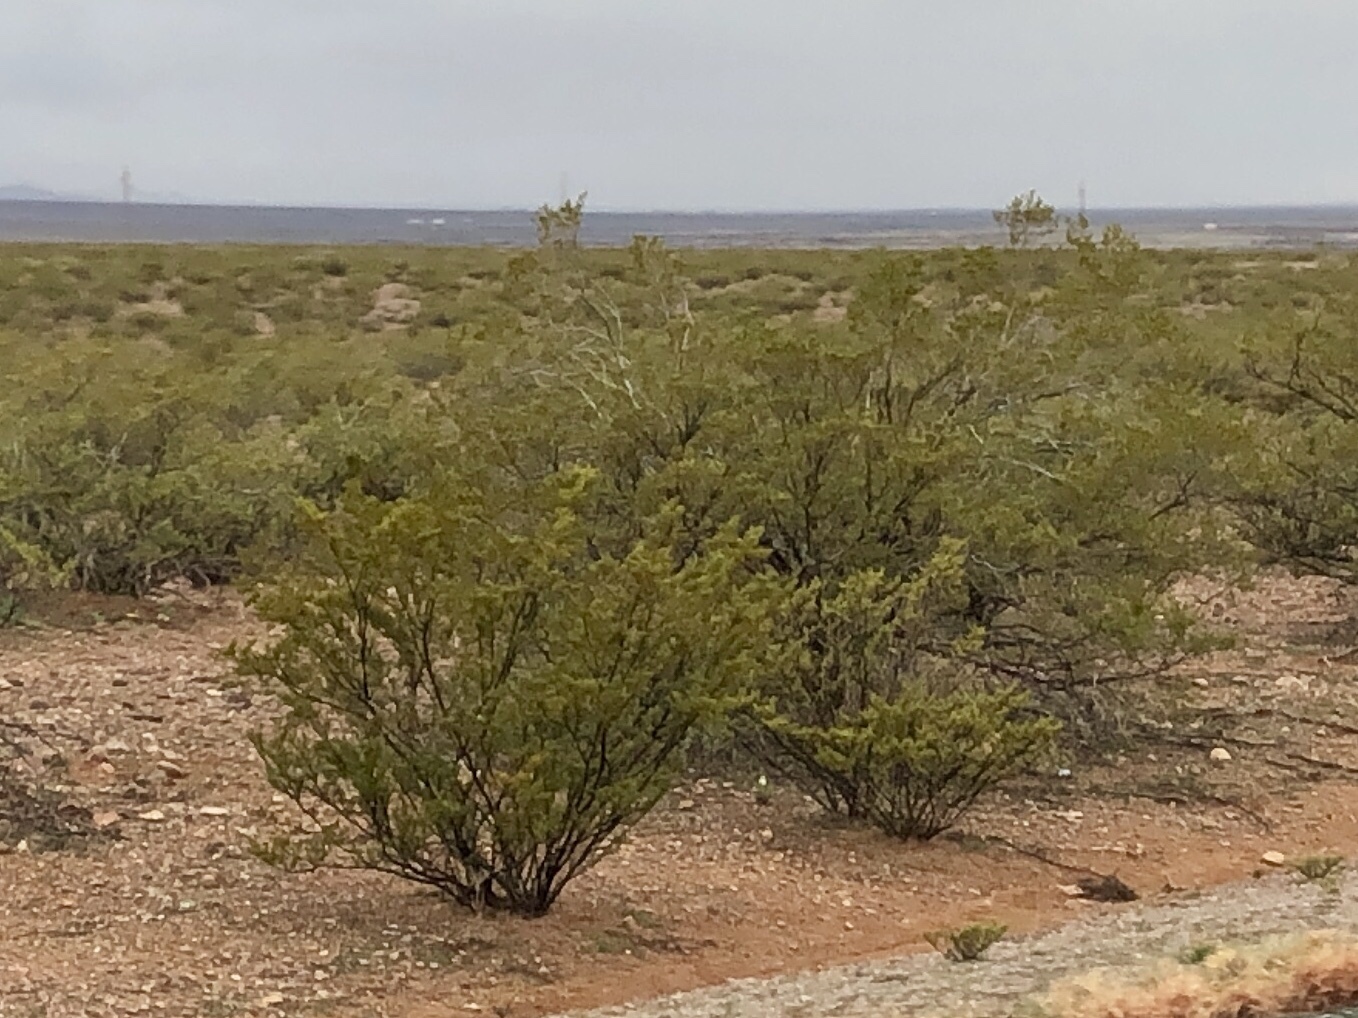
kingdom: Plantae
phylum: Tracheophyta
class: Magnoliopsida
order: Zygophyllales
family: Zygophyllaceae
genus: Larrea
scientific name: Larrea tridentata
